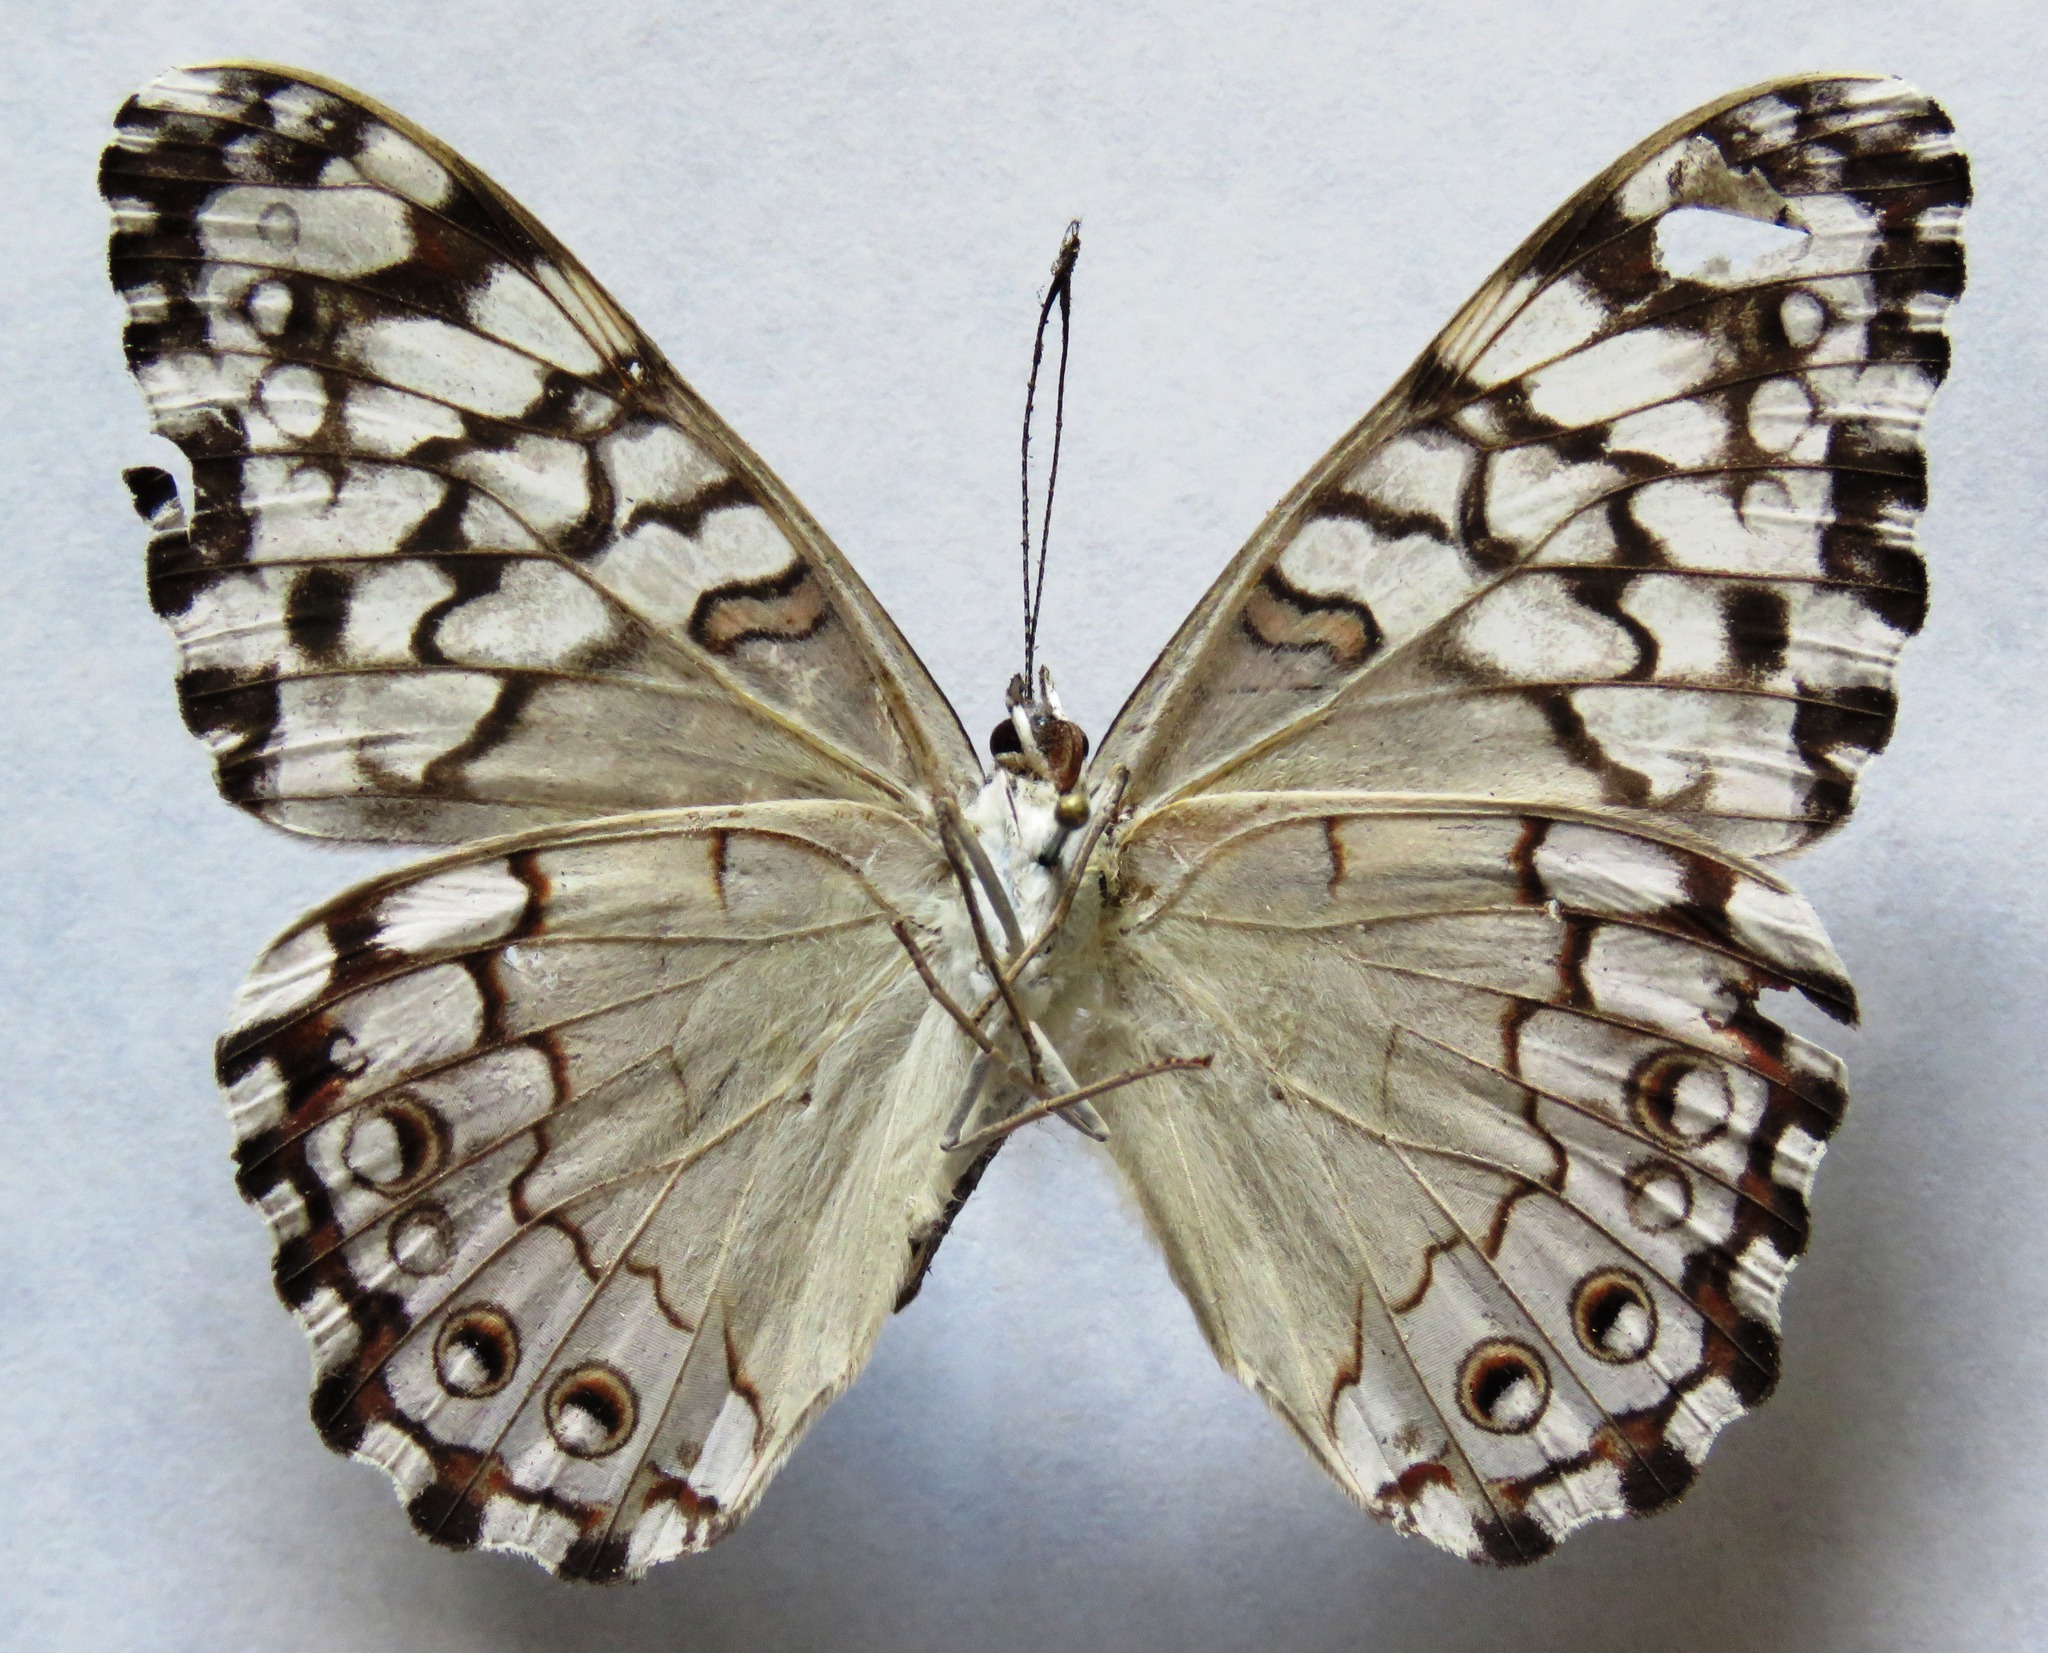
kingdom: Animalia
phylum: Arthropoda
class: Insecta
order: Lepidoptera
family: Nymphalidae
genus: Hamadryas
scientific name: Hamadryas februa
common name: Gray cracker
